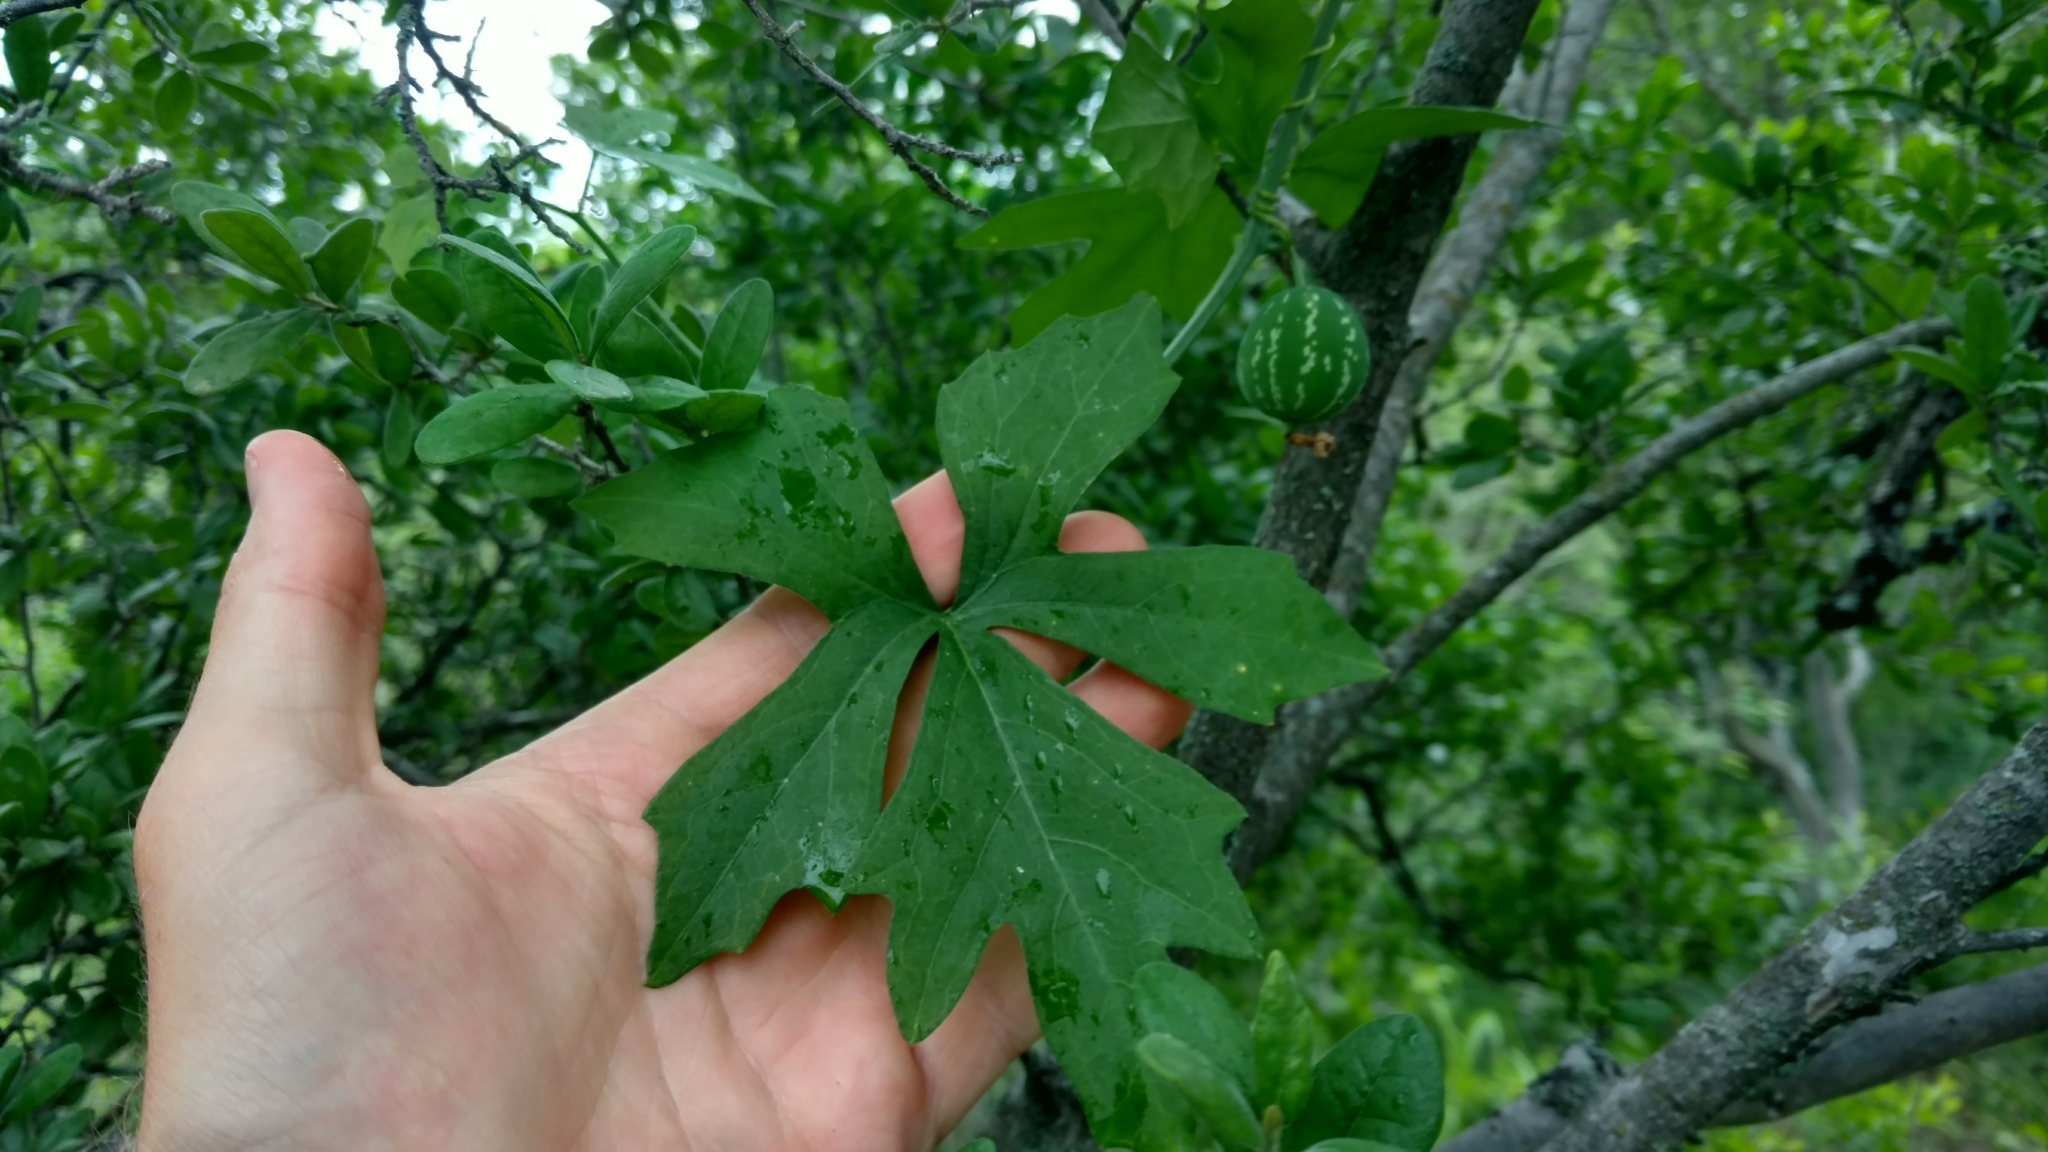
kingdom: Plantae
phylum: Tracheophyta
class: Magnoliopsida
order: Cucurbitales
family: Cucurbitaceae
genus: Ibervillea
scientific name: Ibervillea lindheimeri
